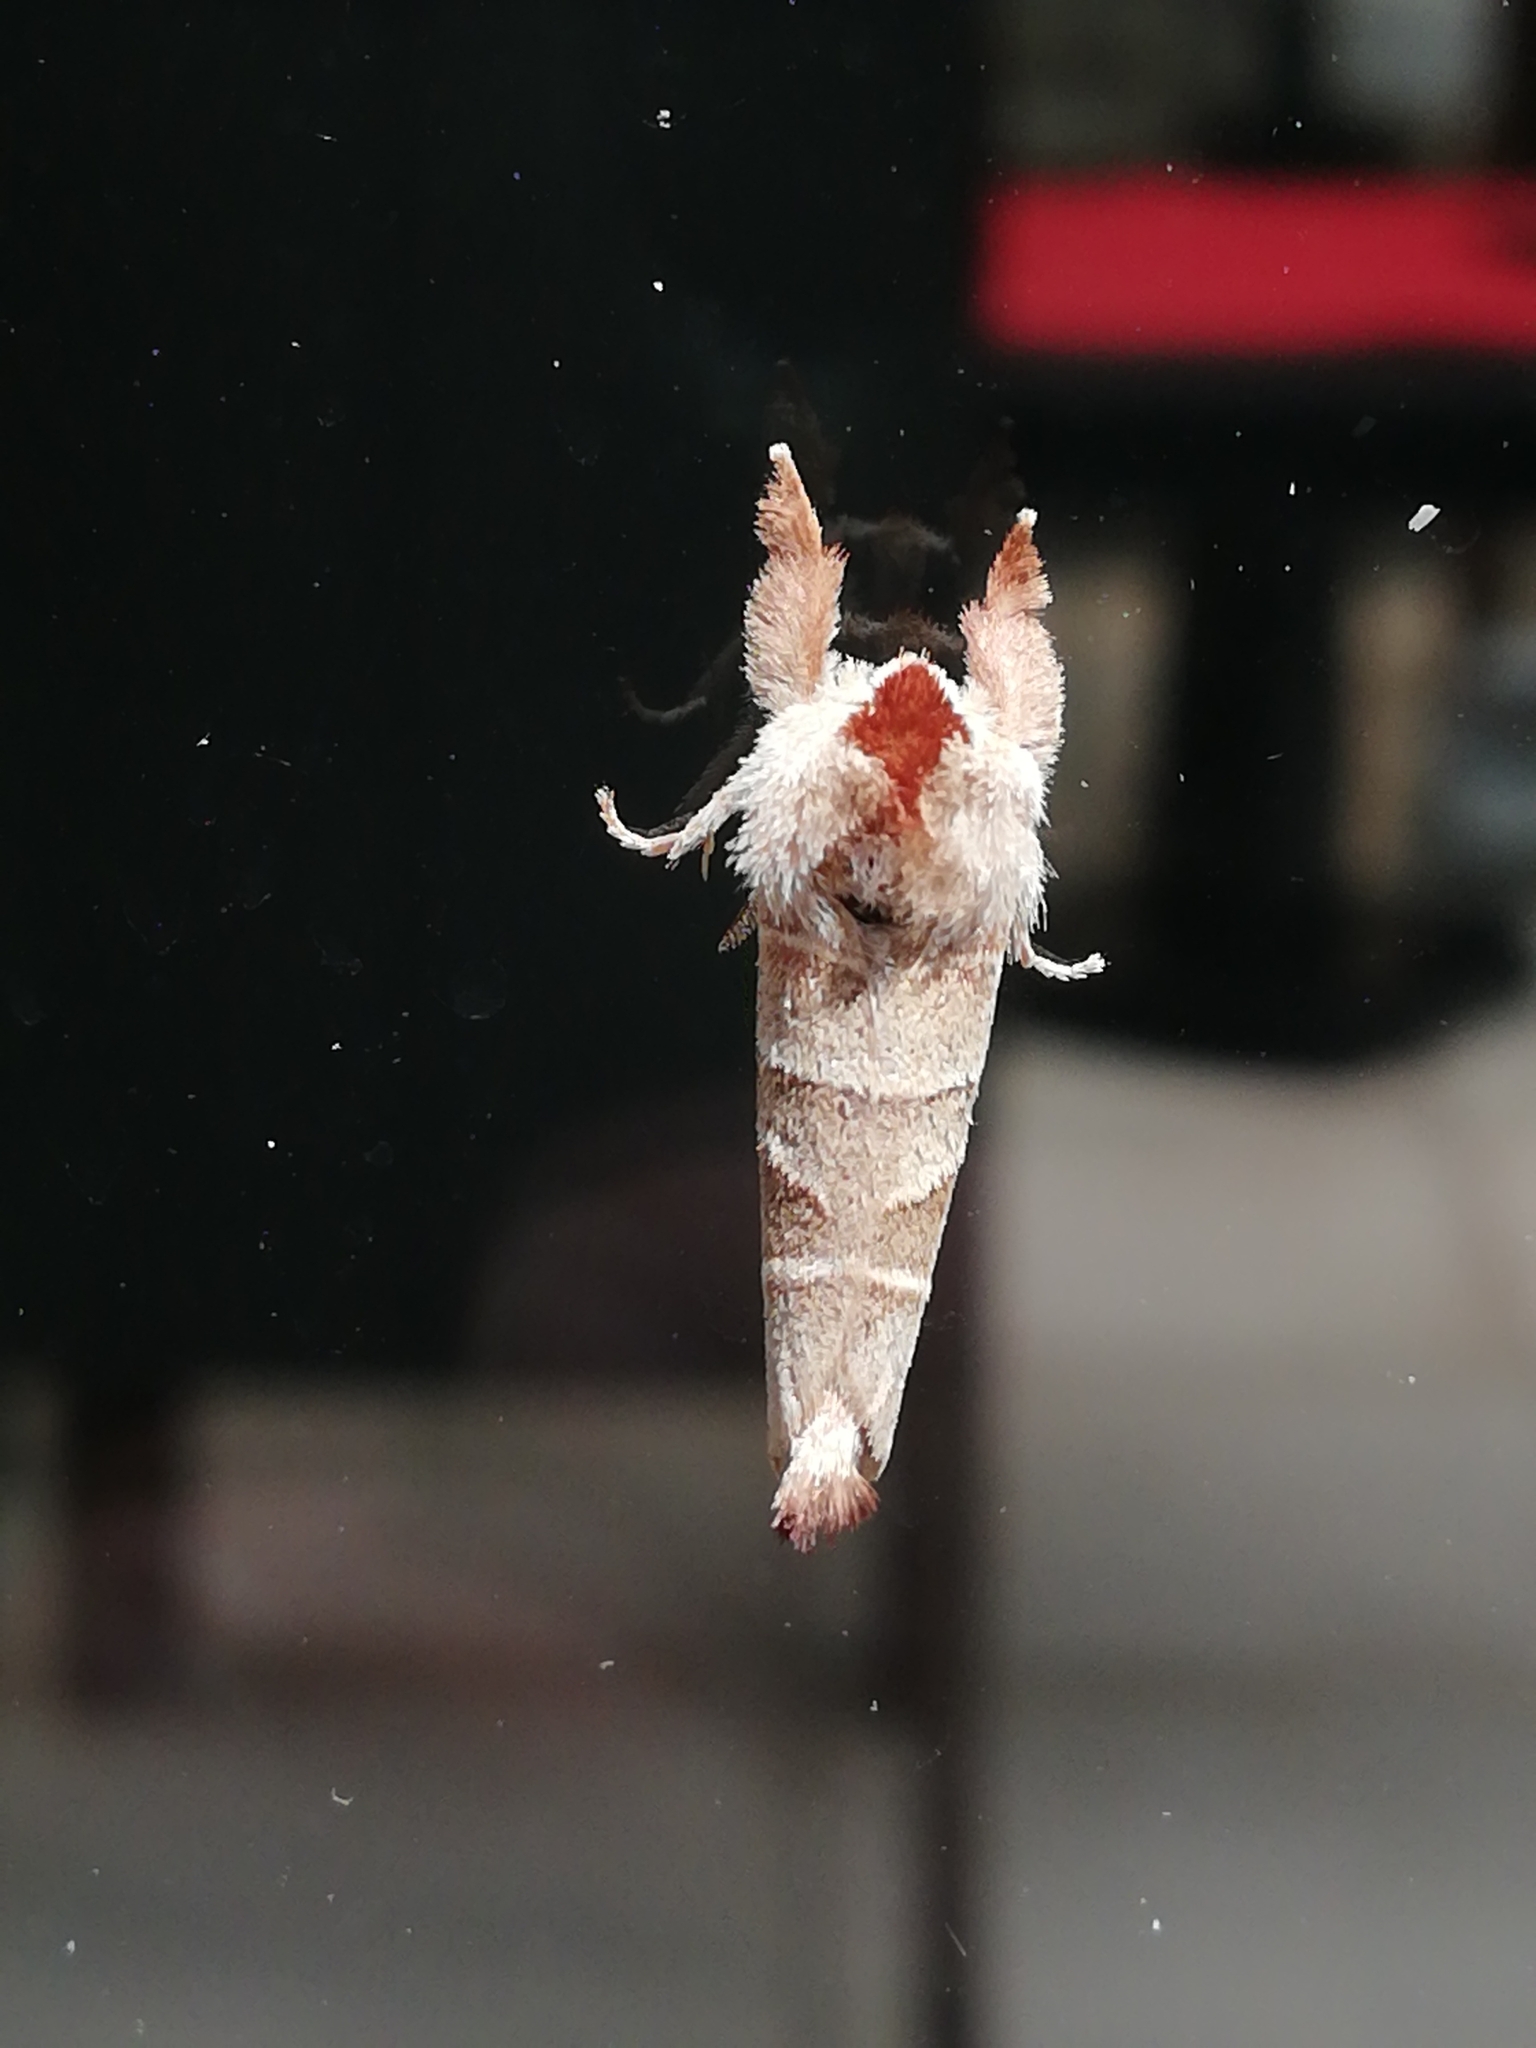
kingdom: Animalia
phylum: Arthropoda
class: Insecta
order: Lepidoptera
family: Notodontidae
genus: Clostera
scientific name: Clostera curtula
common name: Chocolate-tip
